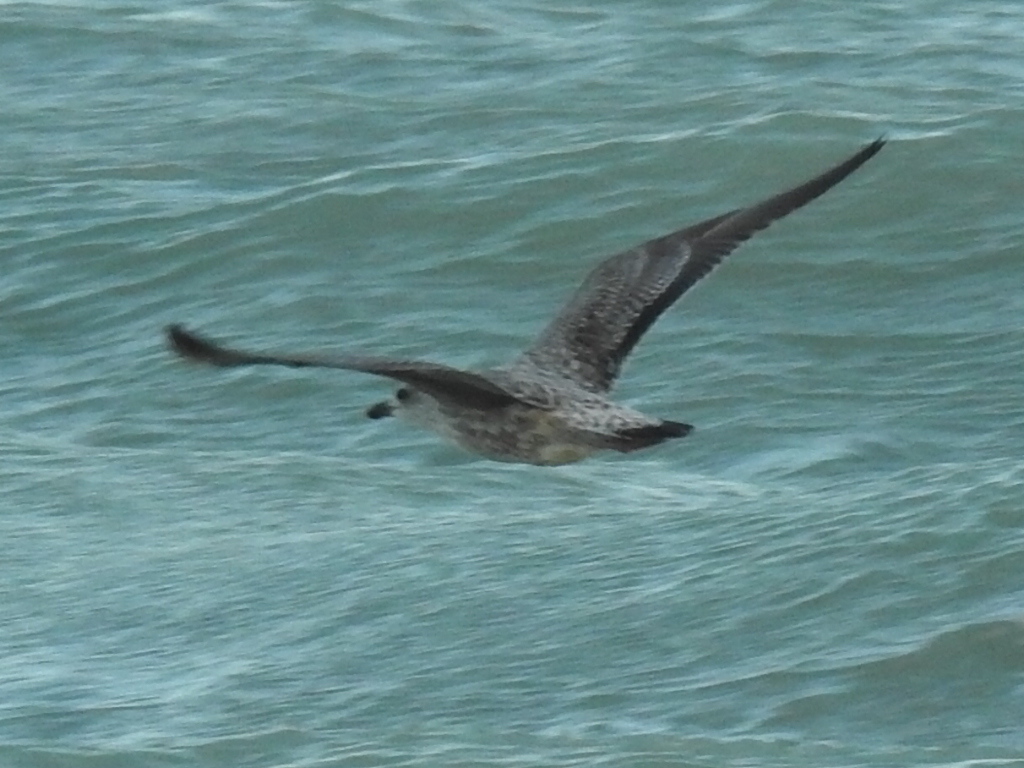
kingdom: Animalia
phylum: Chordata
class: Aves
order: Charadriiformes
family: Laridae
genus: Larus
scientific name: Larus fuscus
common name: Lesser black-backed gull
